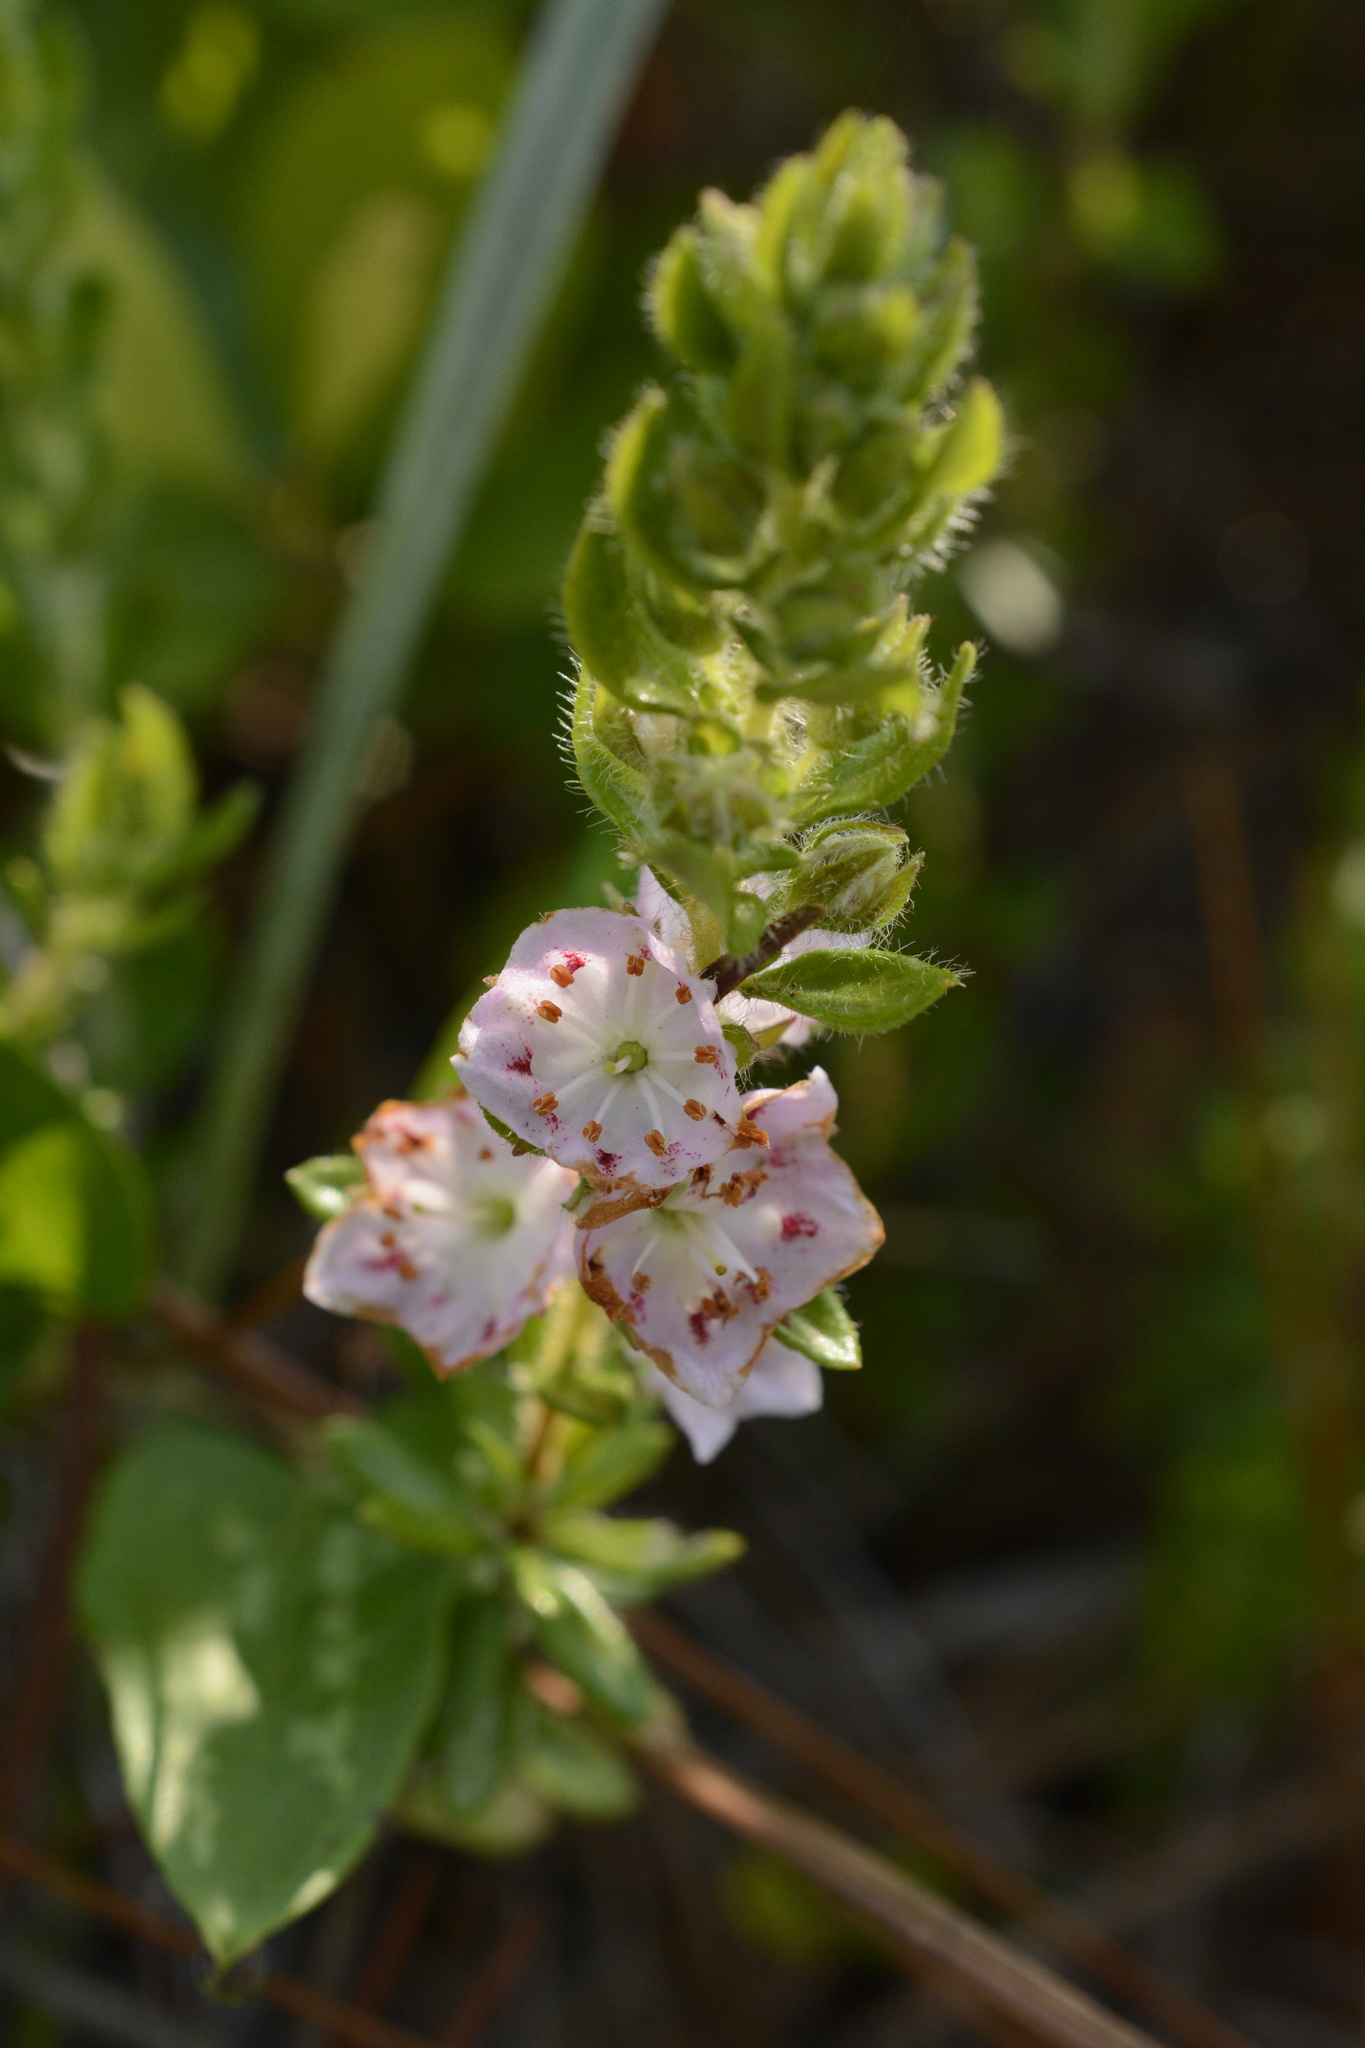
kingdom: Plantae
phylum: Tracheophyta
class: Magnoliopsida
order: Ericales
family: Ericaceae
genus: Kalmia
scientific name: Kalmia hirsuta
